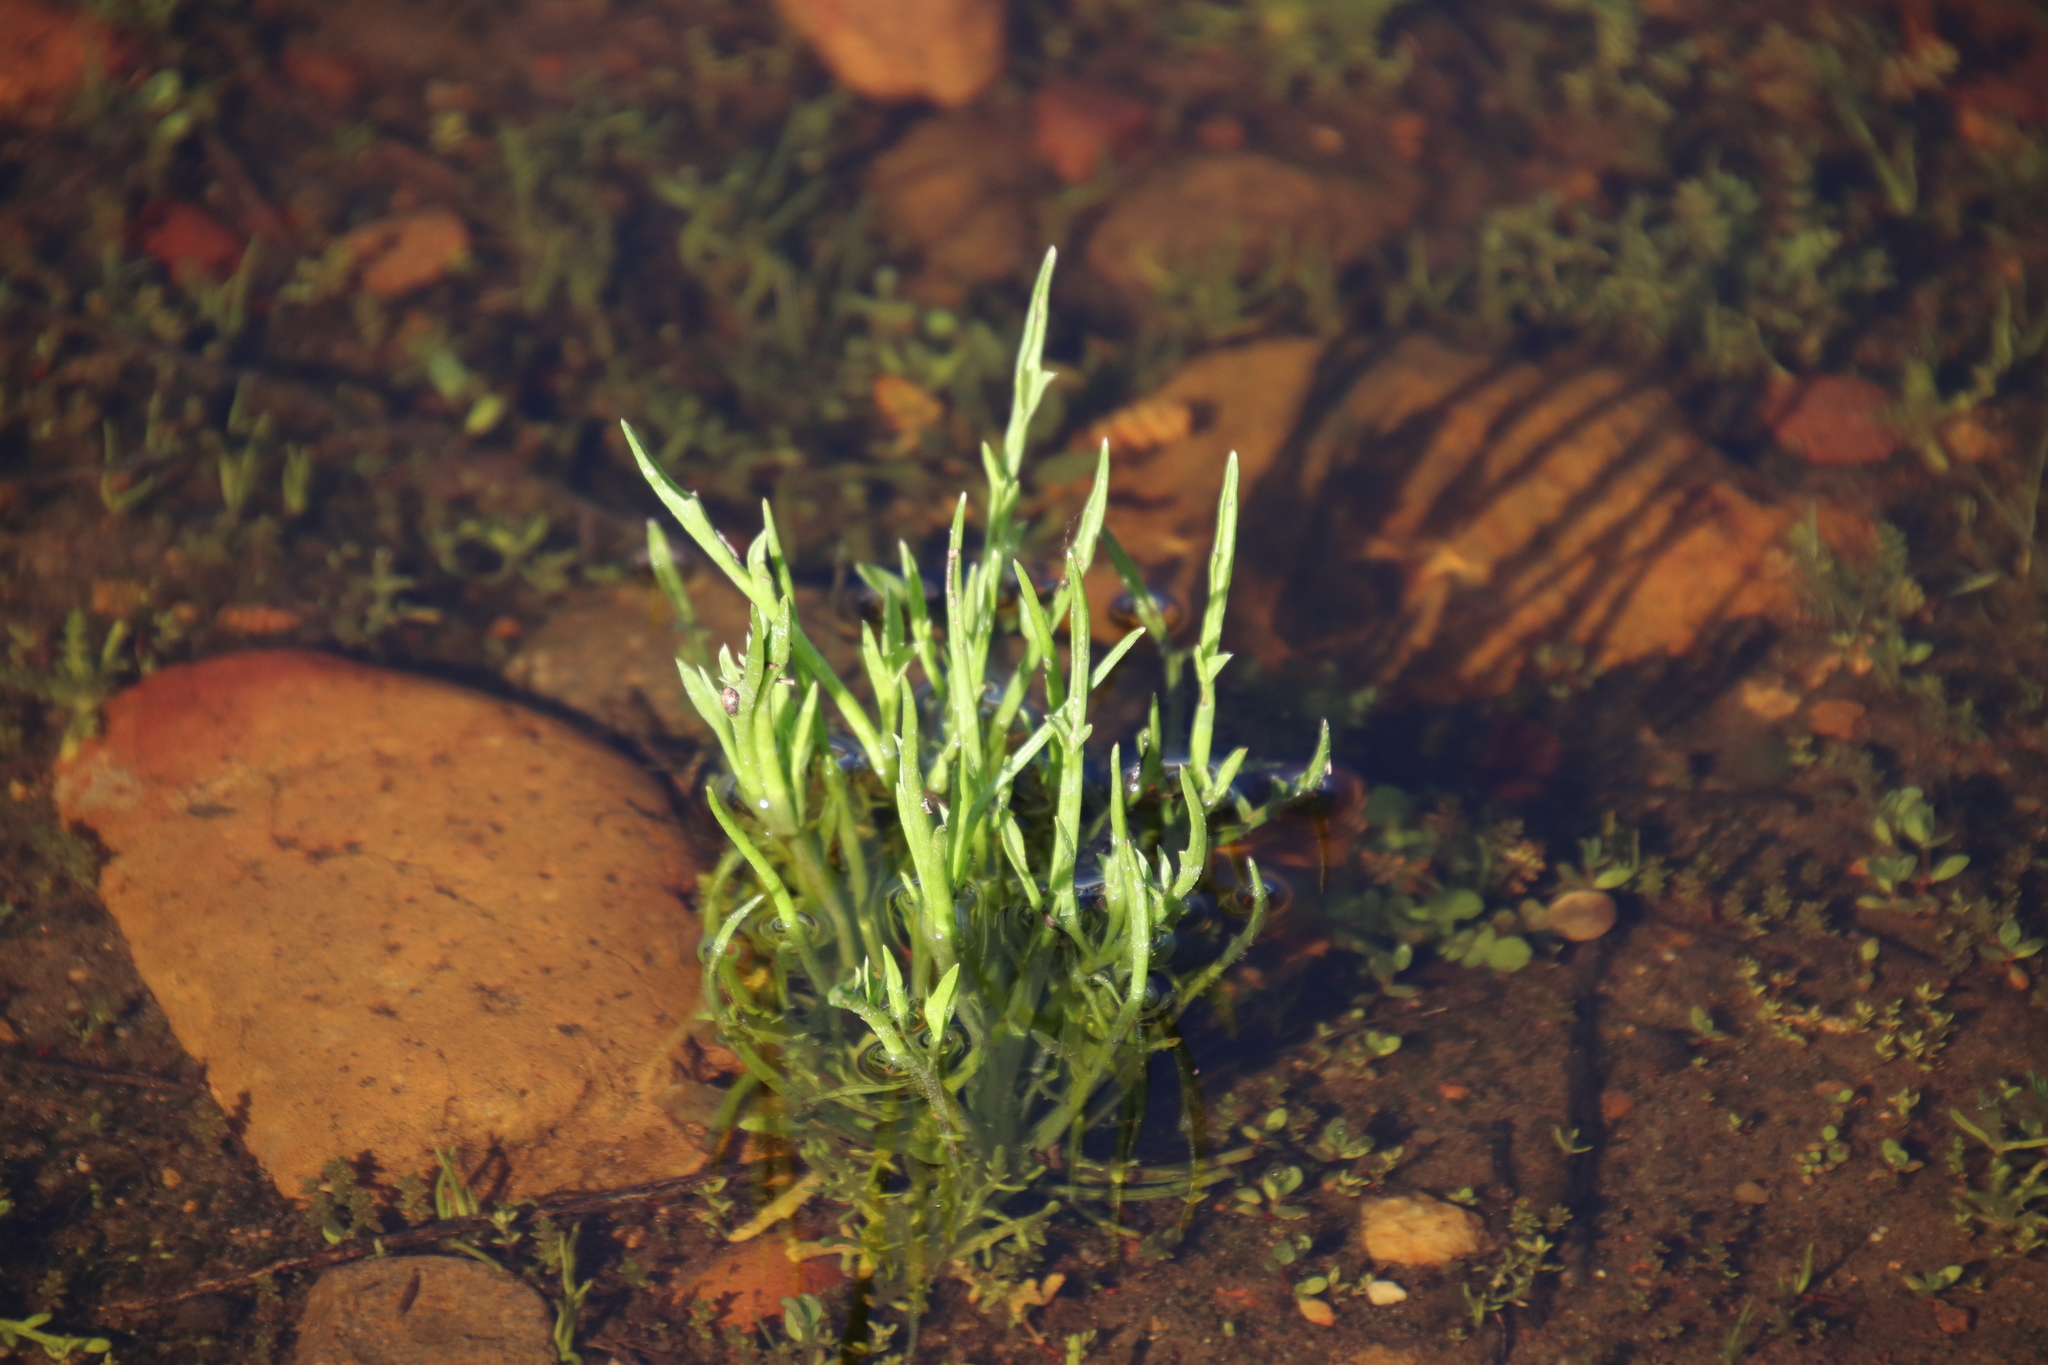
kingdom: Plantae
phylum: Tracheophyta
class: Magnoliopsida
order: Apiales
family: Apiaceae
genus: Eryngium
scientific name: Eryngium aristulatum
